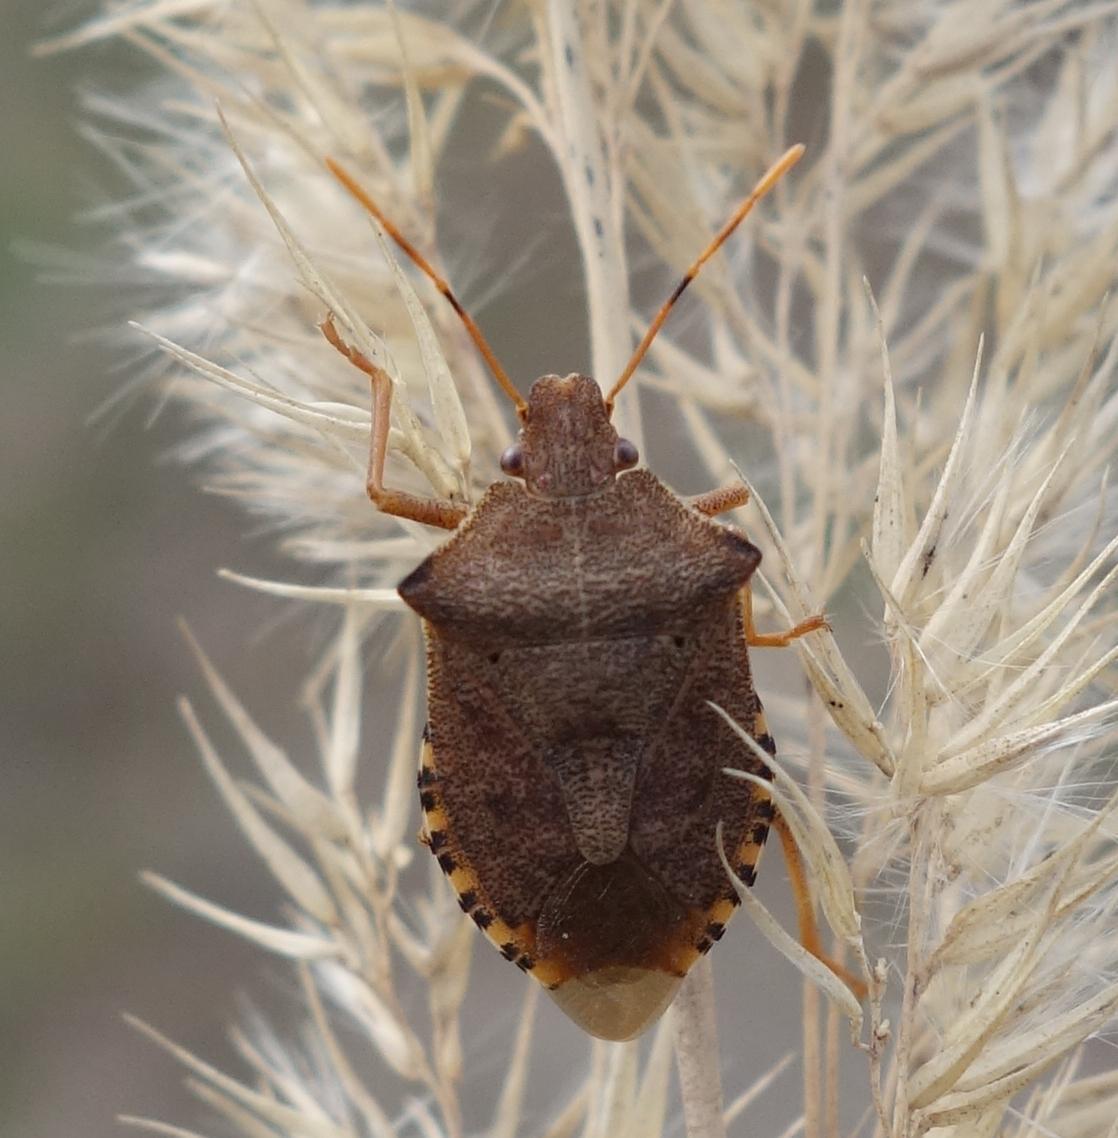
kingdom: Animalia
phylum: Arthropoda
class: Insecta
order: Hemiptera
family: Pentatomidae
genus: Arma
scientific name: Arma custos
